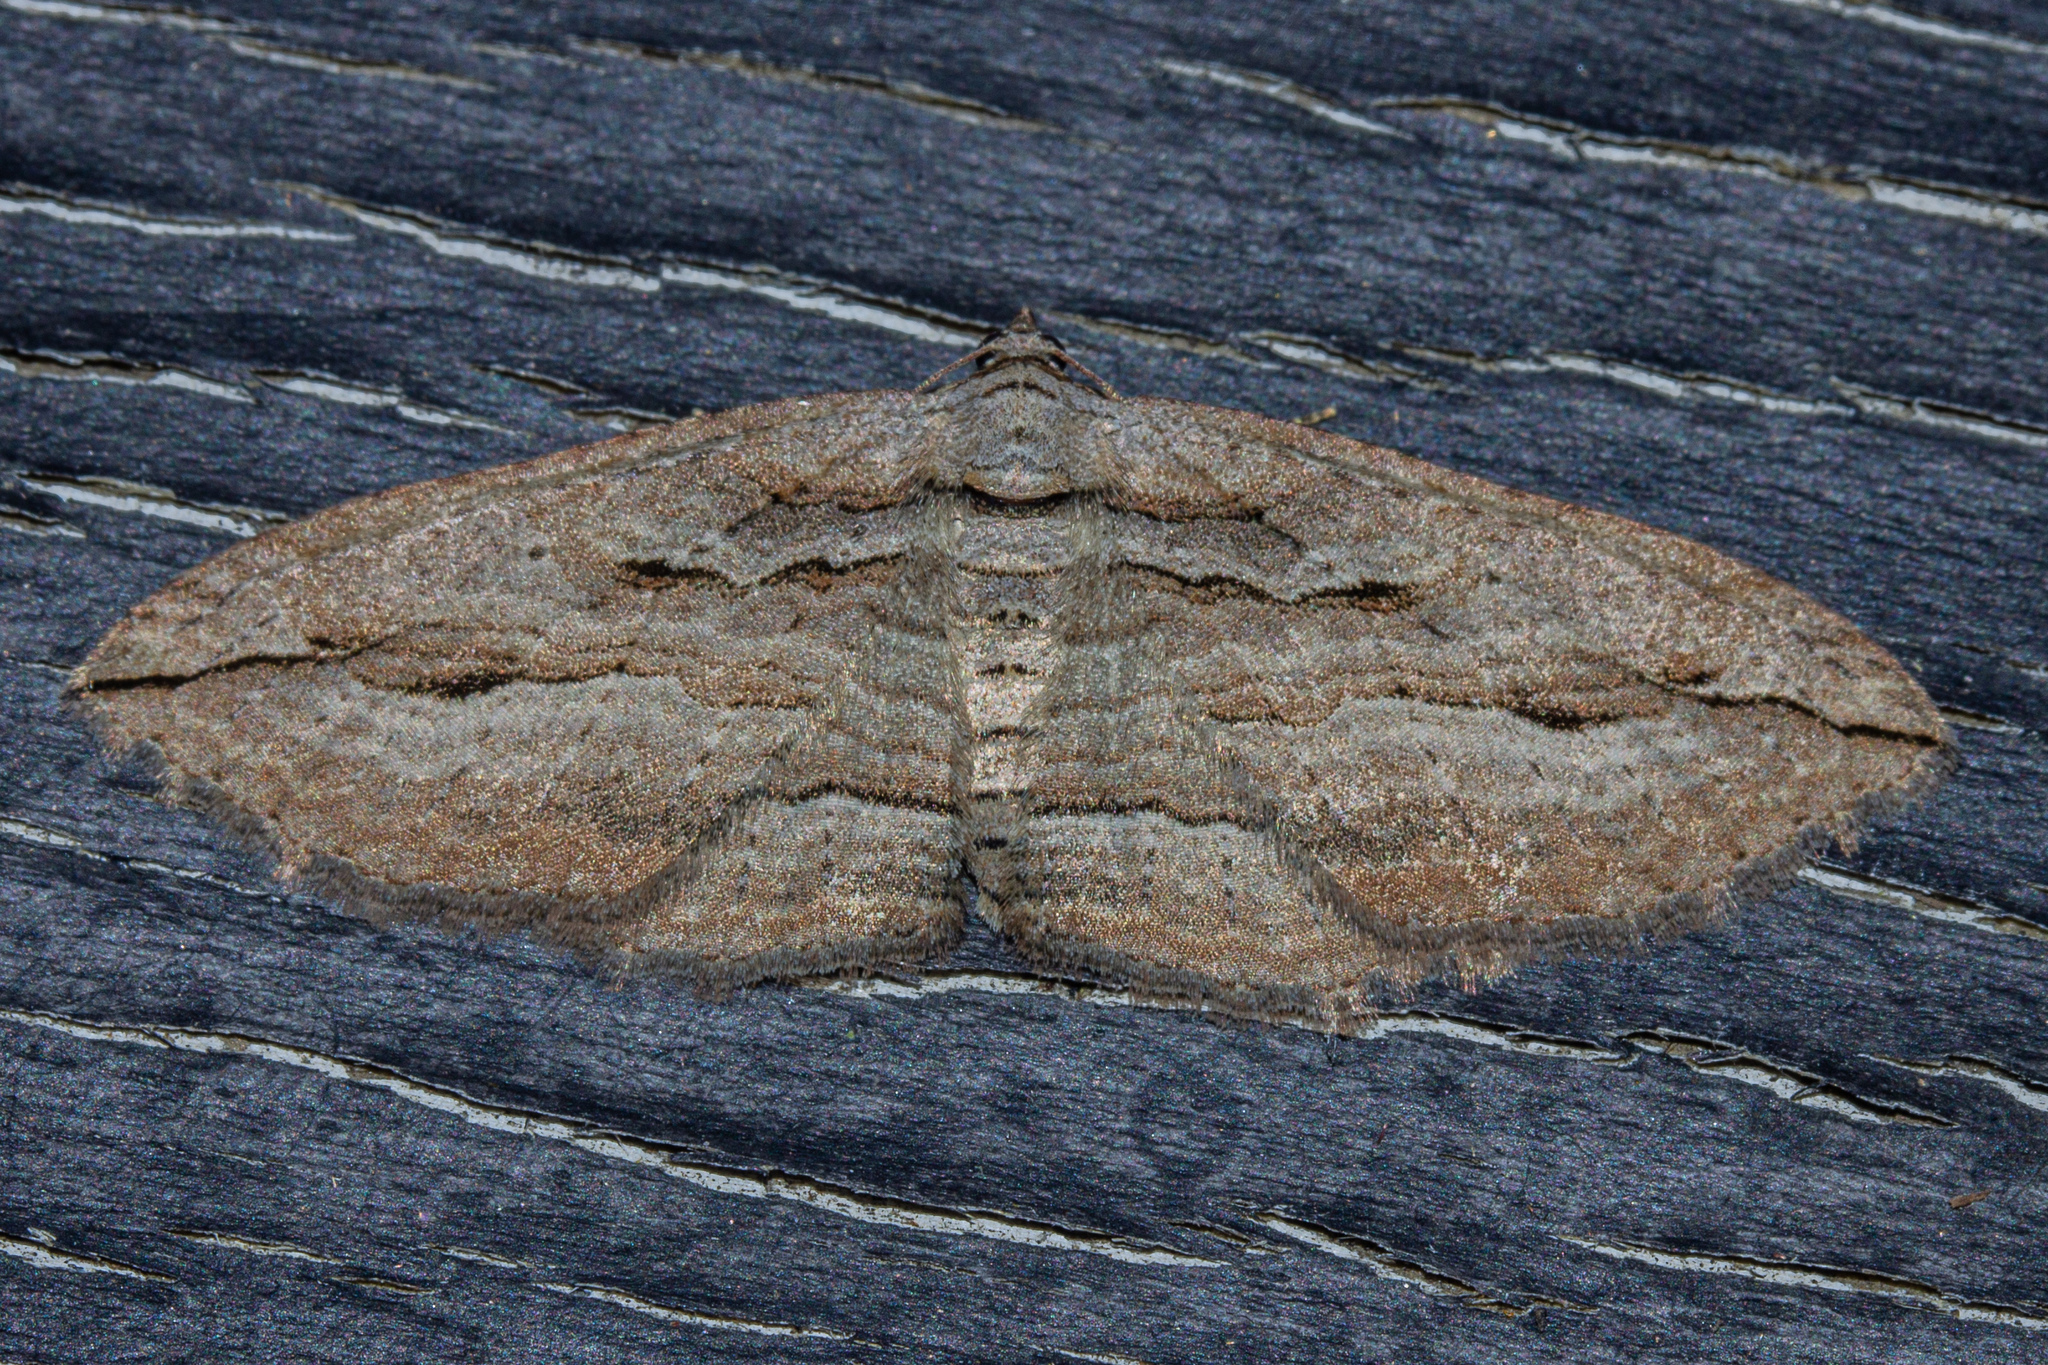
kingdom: Animalia
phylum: Arthropoda
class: Insecta
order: Lepidoptera
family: Geometridae
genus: Austrocidaria
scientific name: Austrocidaria gobiata
